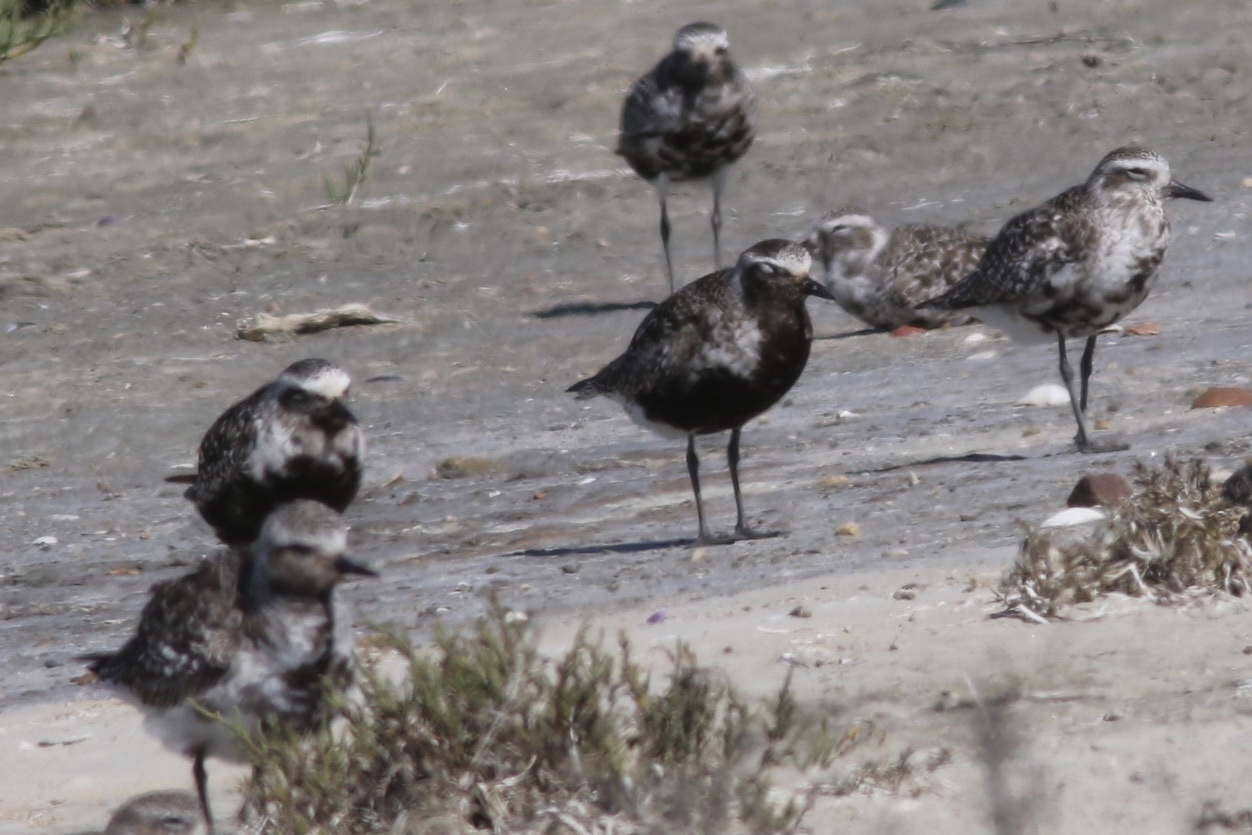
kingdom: Animalia
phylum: Chordata
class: Aves
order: Charadriiformes
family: Charadriidae
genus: Pluvialis
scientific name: Pluvialis squatarola
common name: Grey plover
